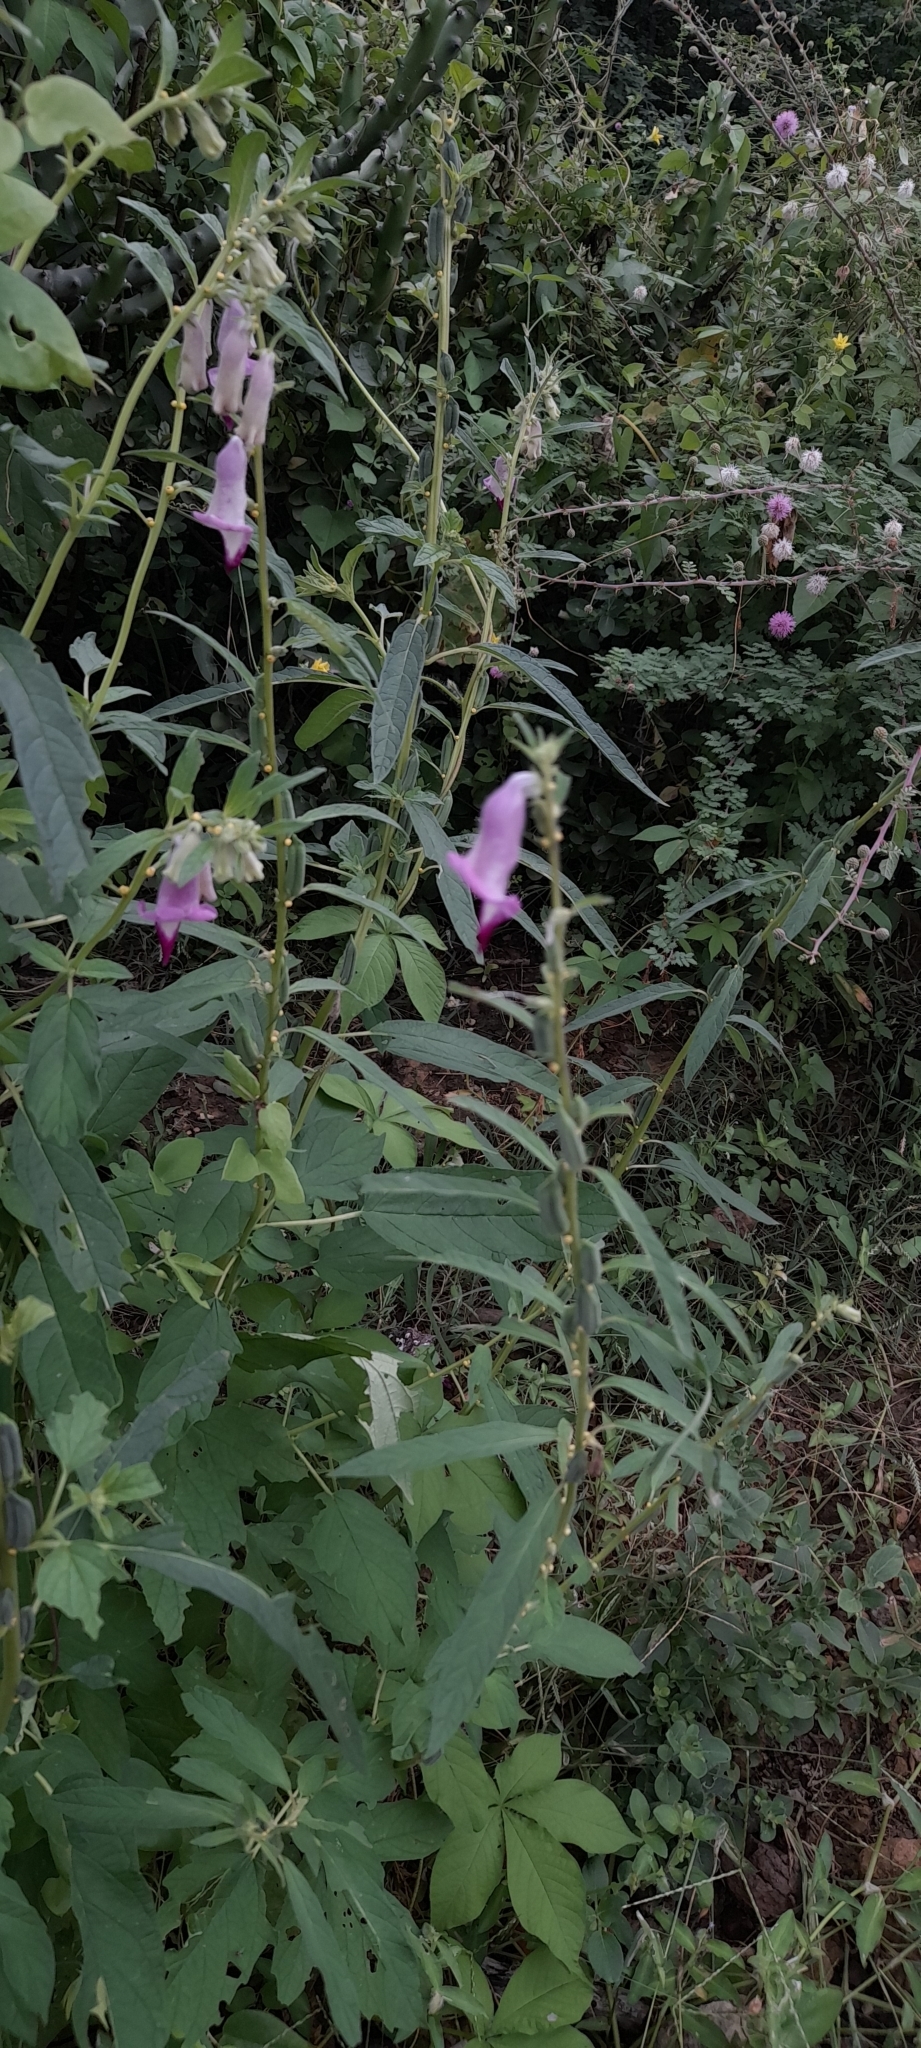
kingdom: Plantae
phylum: Tracheophyta
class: Magnoliopsida
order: Lamiales
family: Pedaliaceae
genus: Sesamum
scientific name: Sesamum indicum
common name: Sesame
